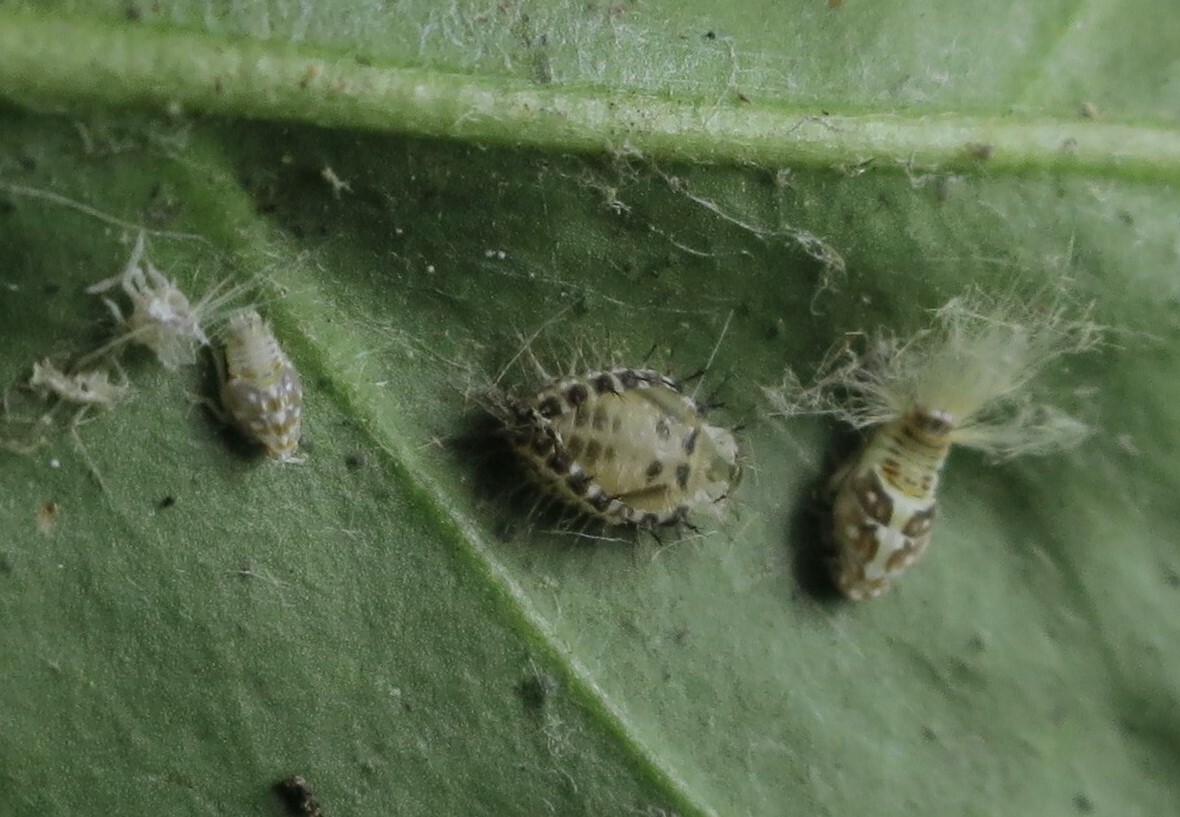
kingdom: Animalia
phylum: Arthropoda
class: Insecta
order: Hemiptera
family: Ricaniidae
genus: Scolypopa
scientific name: Scolypopa australis
